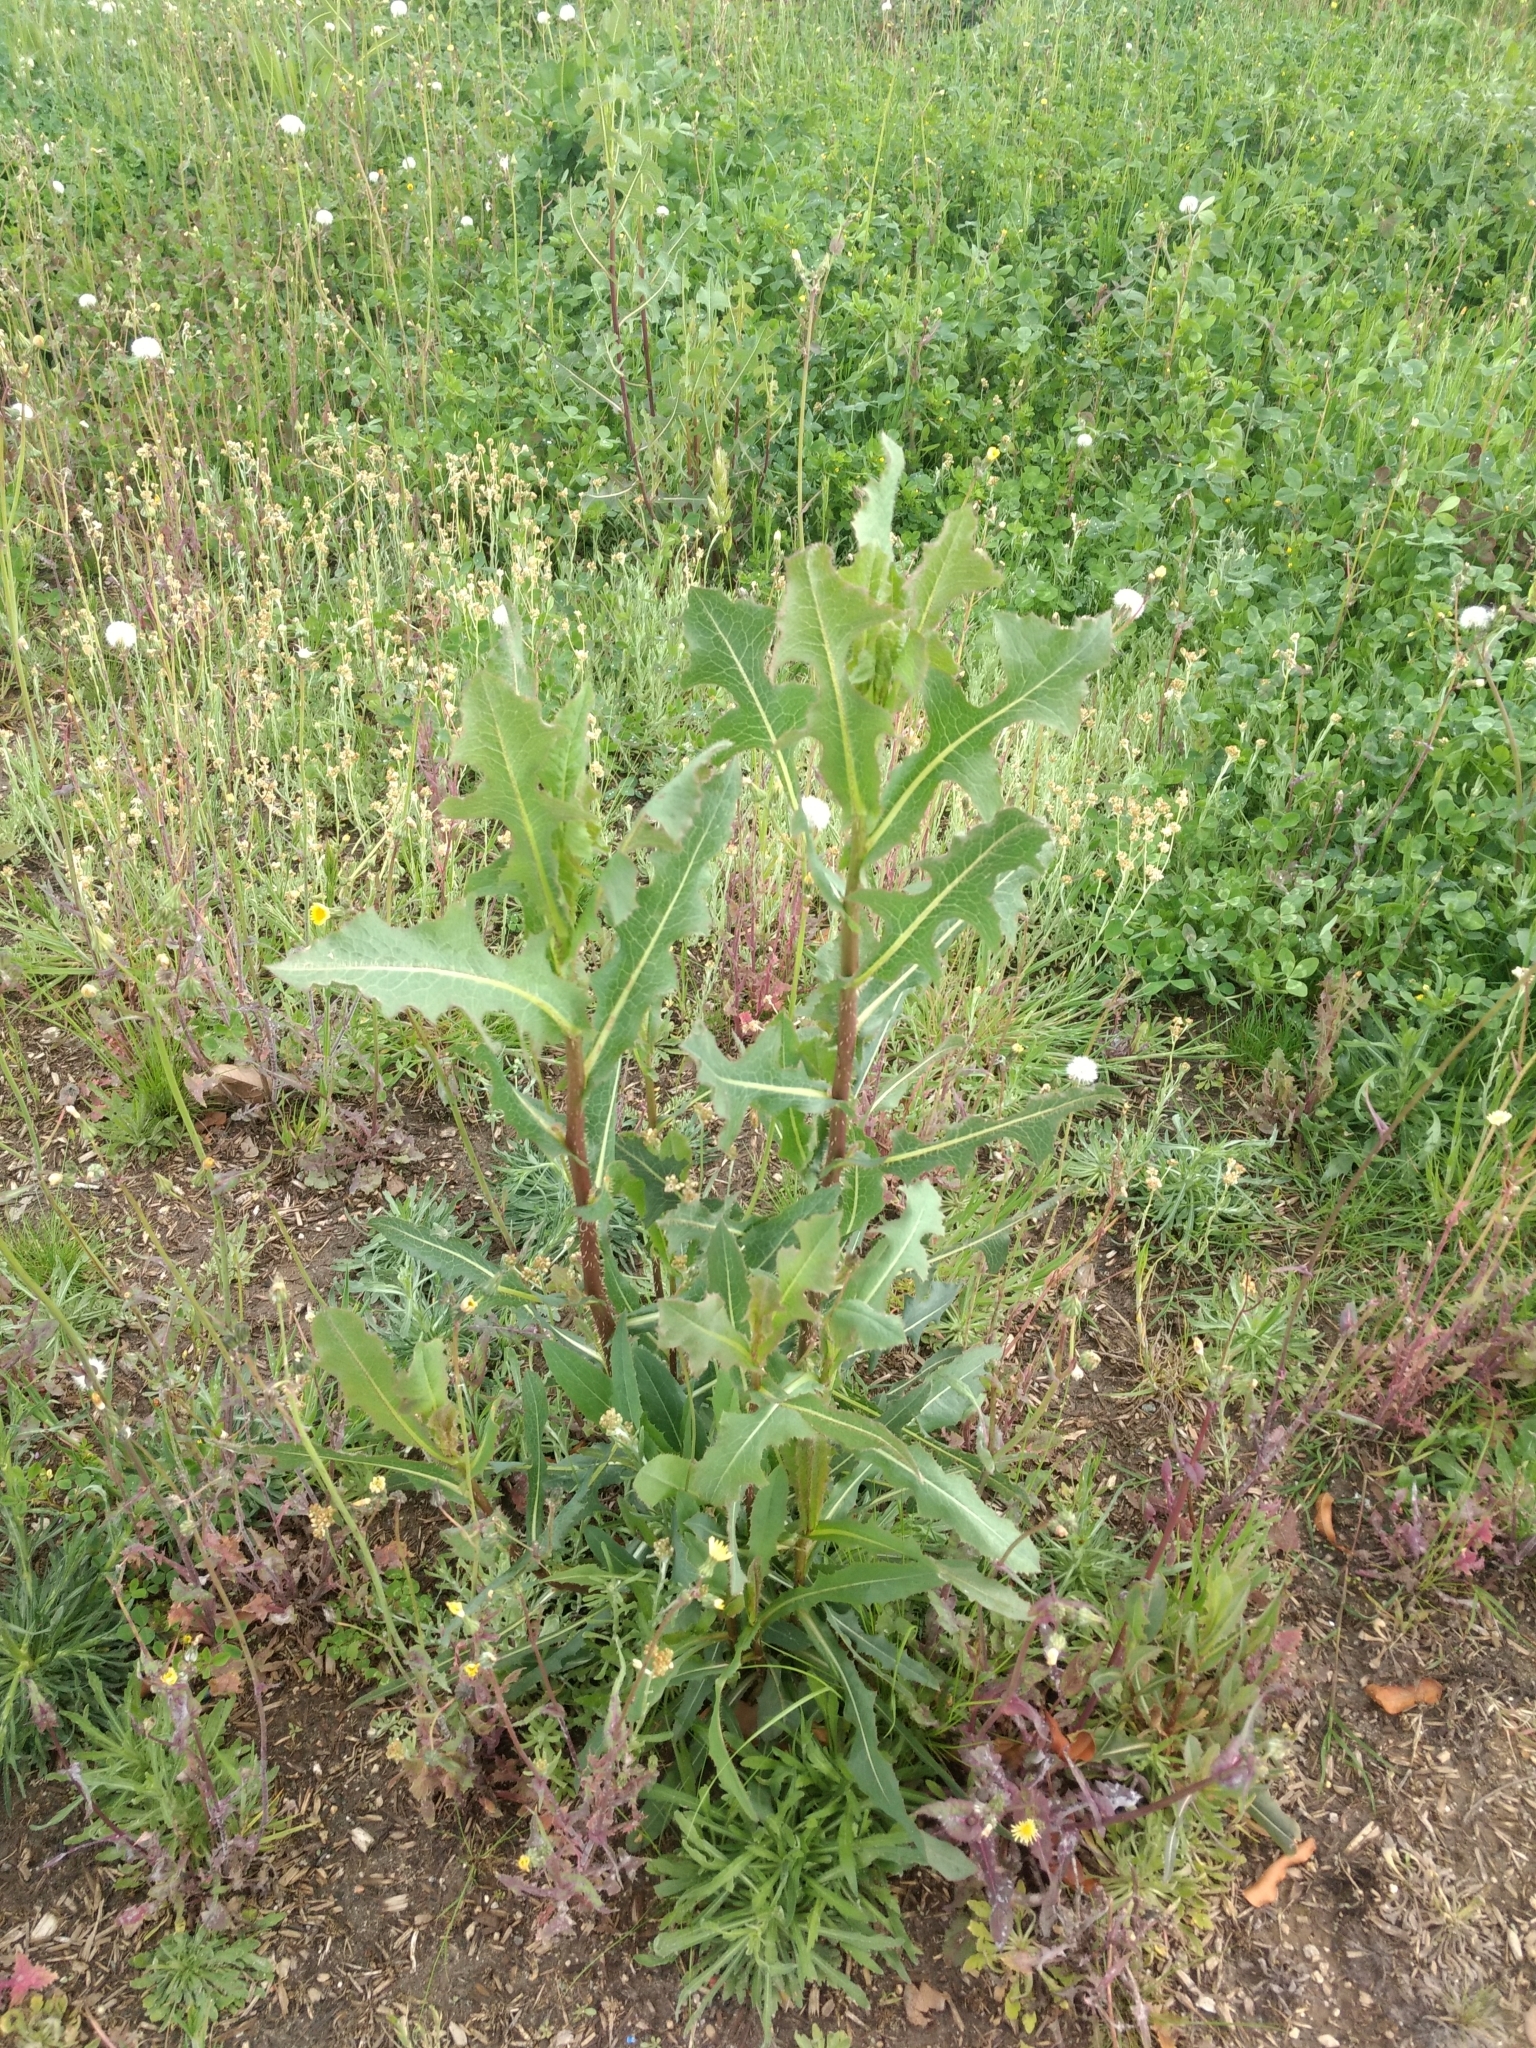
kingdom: Plantae
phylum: Tracheophyta
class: Magnoliopsida
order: Asterales
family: Asteraceae
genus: Lactuca
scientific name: Lactuca serriola
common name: Prickly lettuce
